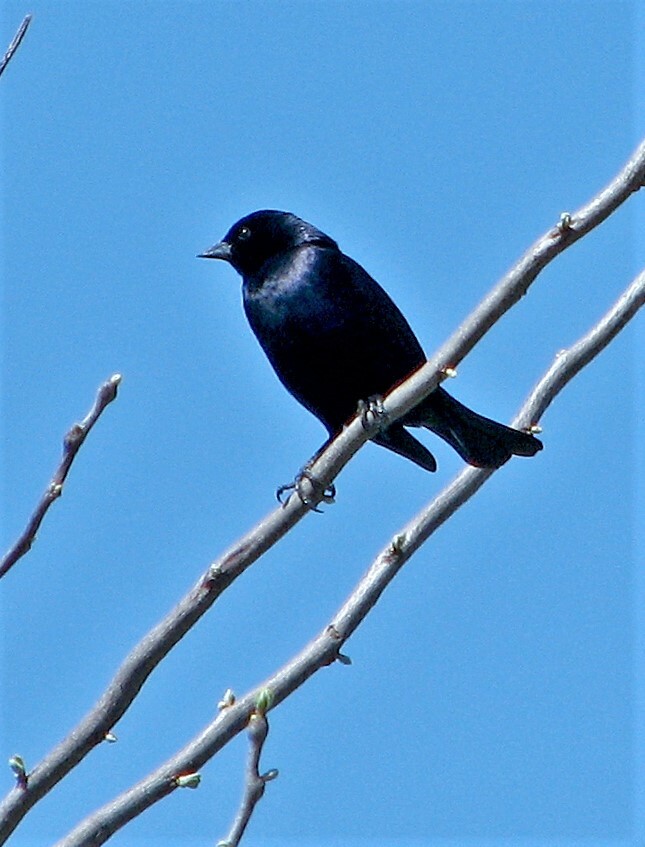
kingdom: Animalia
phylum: Chordata
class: Aves
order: Passeriformes
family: Icteridae
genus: Molothrus
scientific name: Molothrus bonariensis
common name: Shiny cowbird
